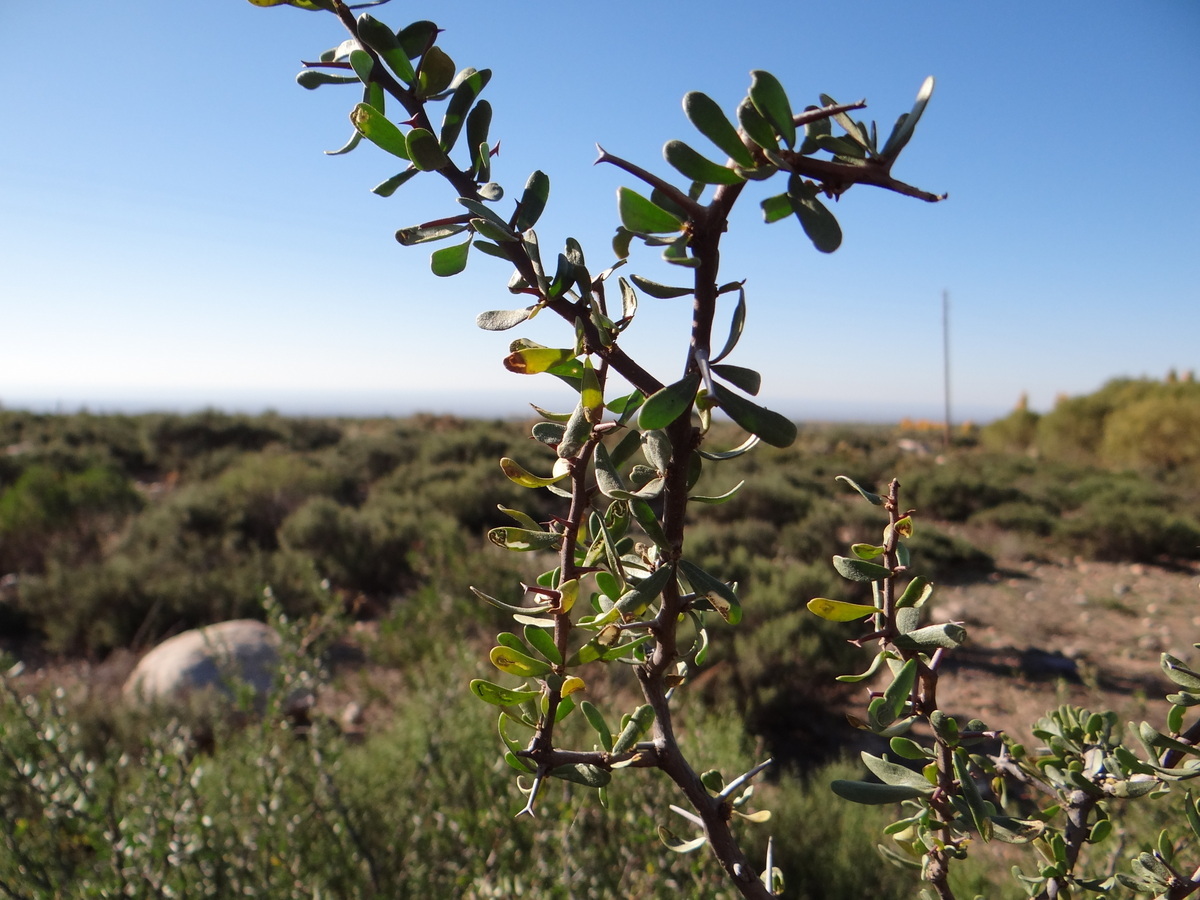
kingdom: Plantae
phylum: Tracheophyta
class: Magnoliopsida
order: Caryophyllales
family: Nyctaginaceae
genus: Bougainvillea
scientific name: Bougainvillea spinosa
